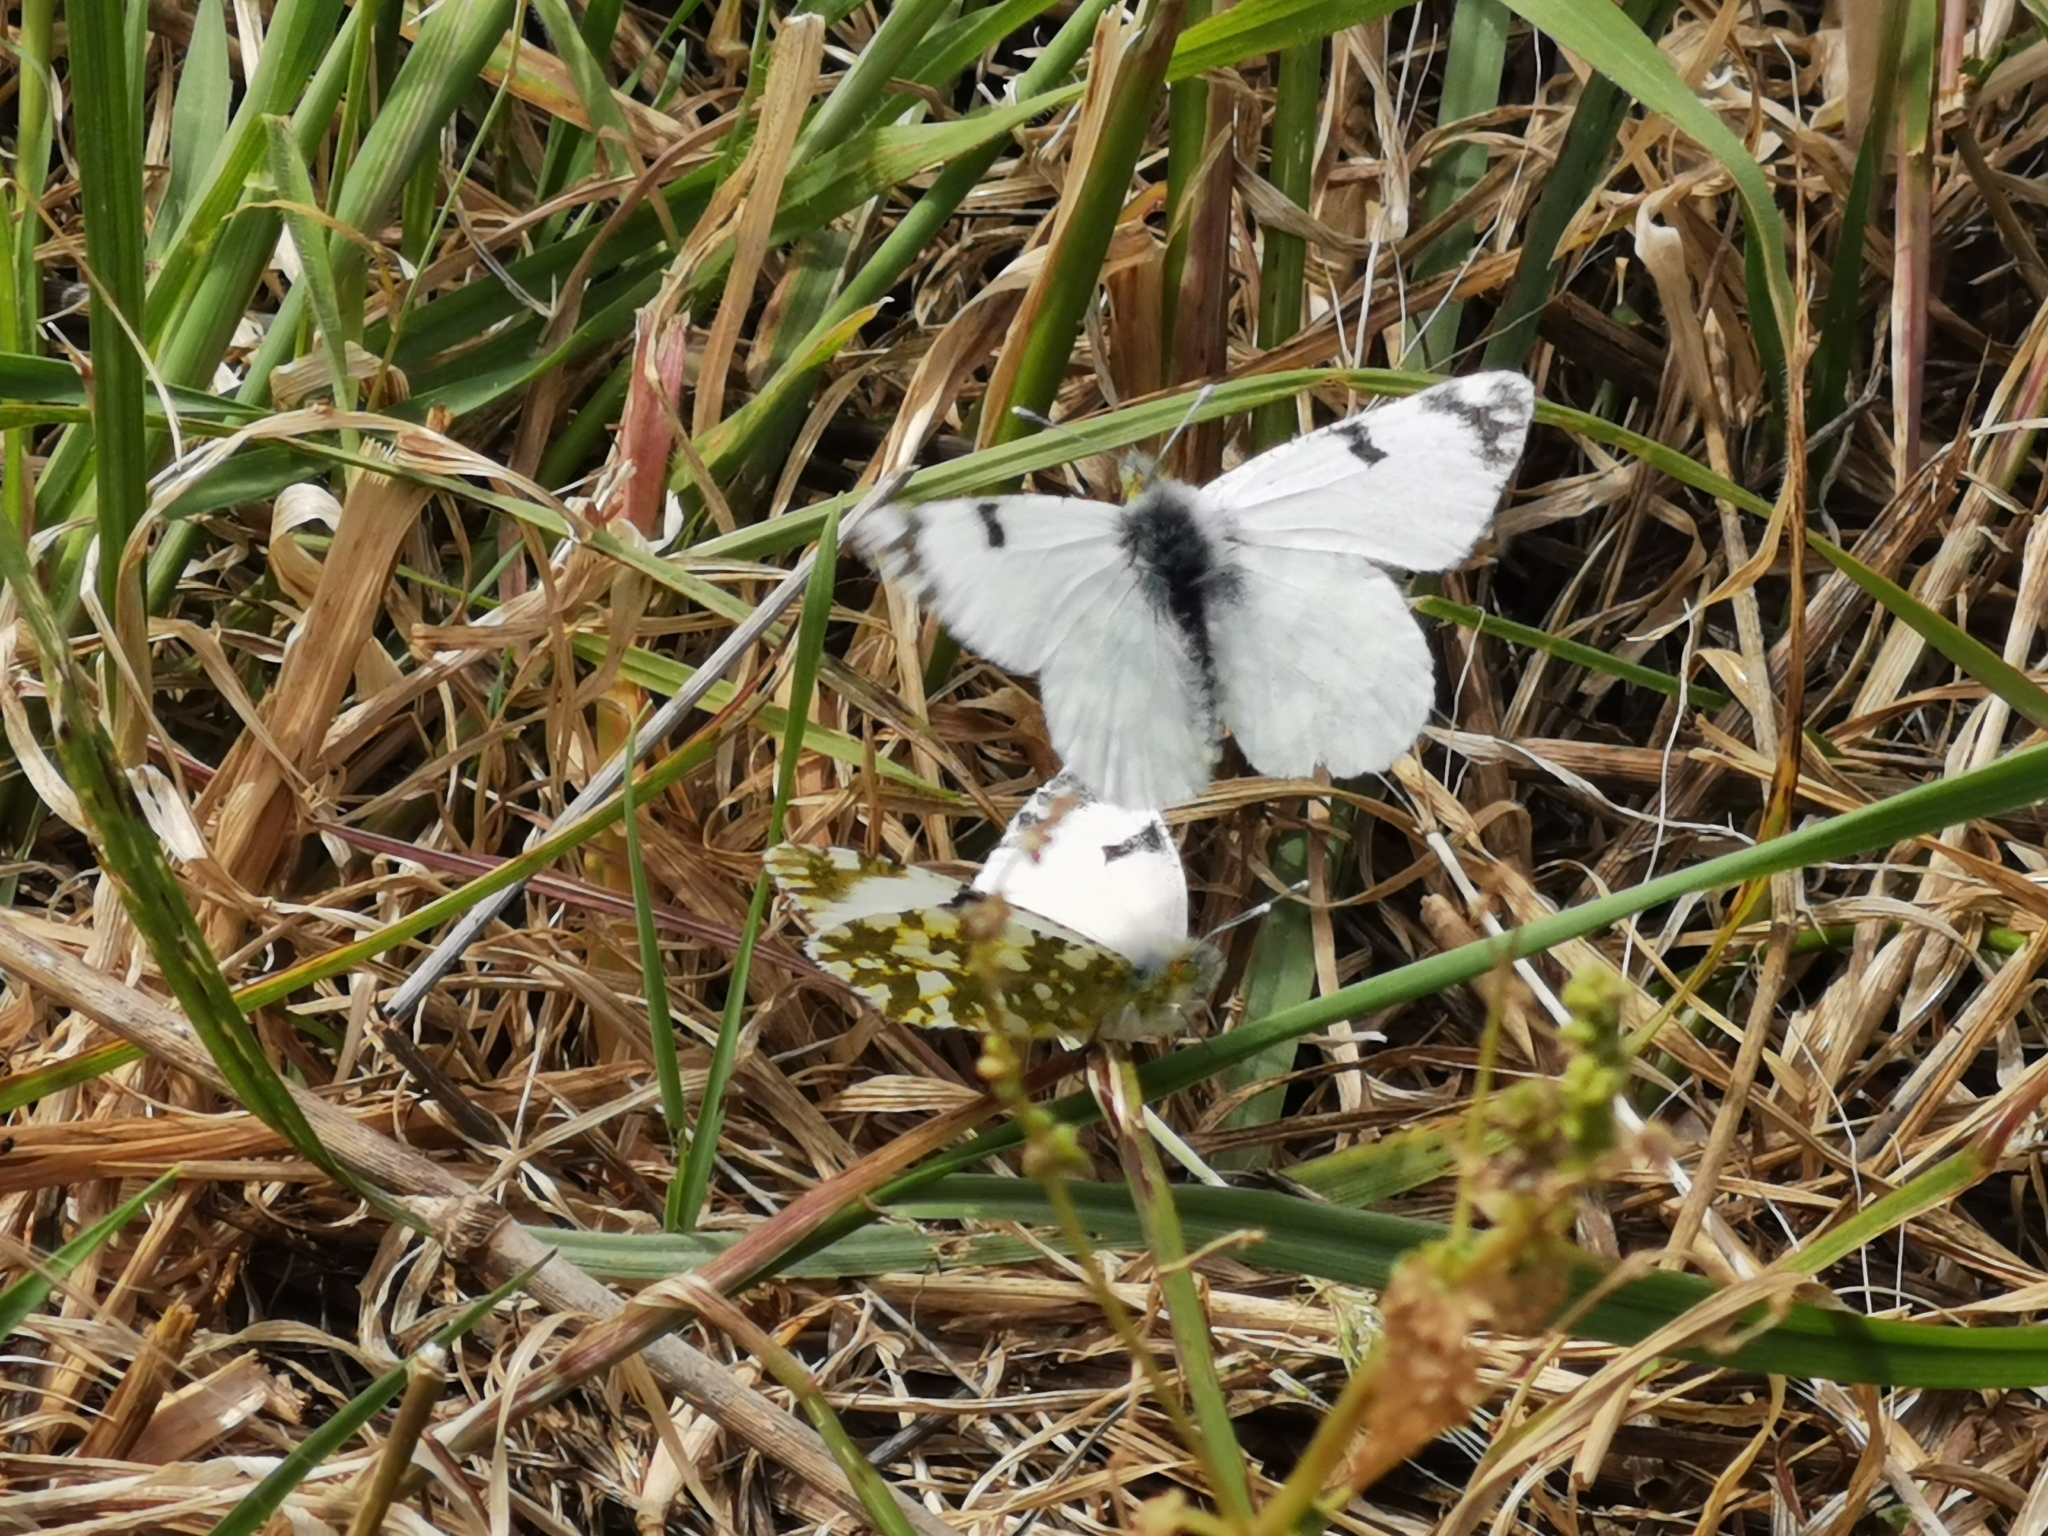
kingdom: Animalia
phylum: Arthropoda
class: Insecta
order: Lepidoptera
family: Pieridae
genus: Euchloe
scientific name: Euchloe ausonia
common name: Eastern dappled white
